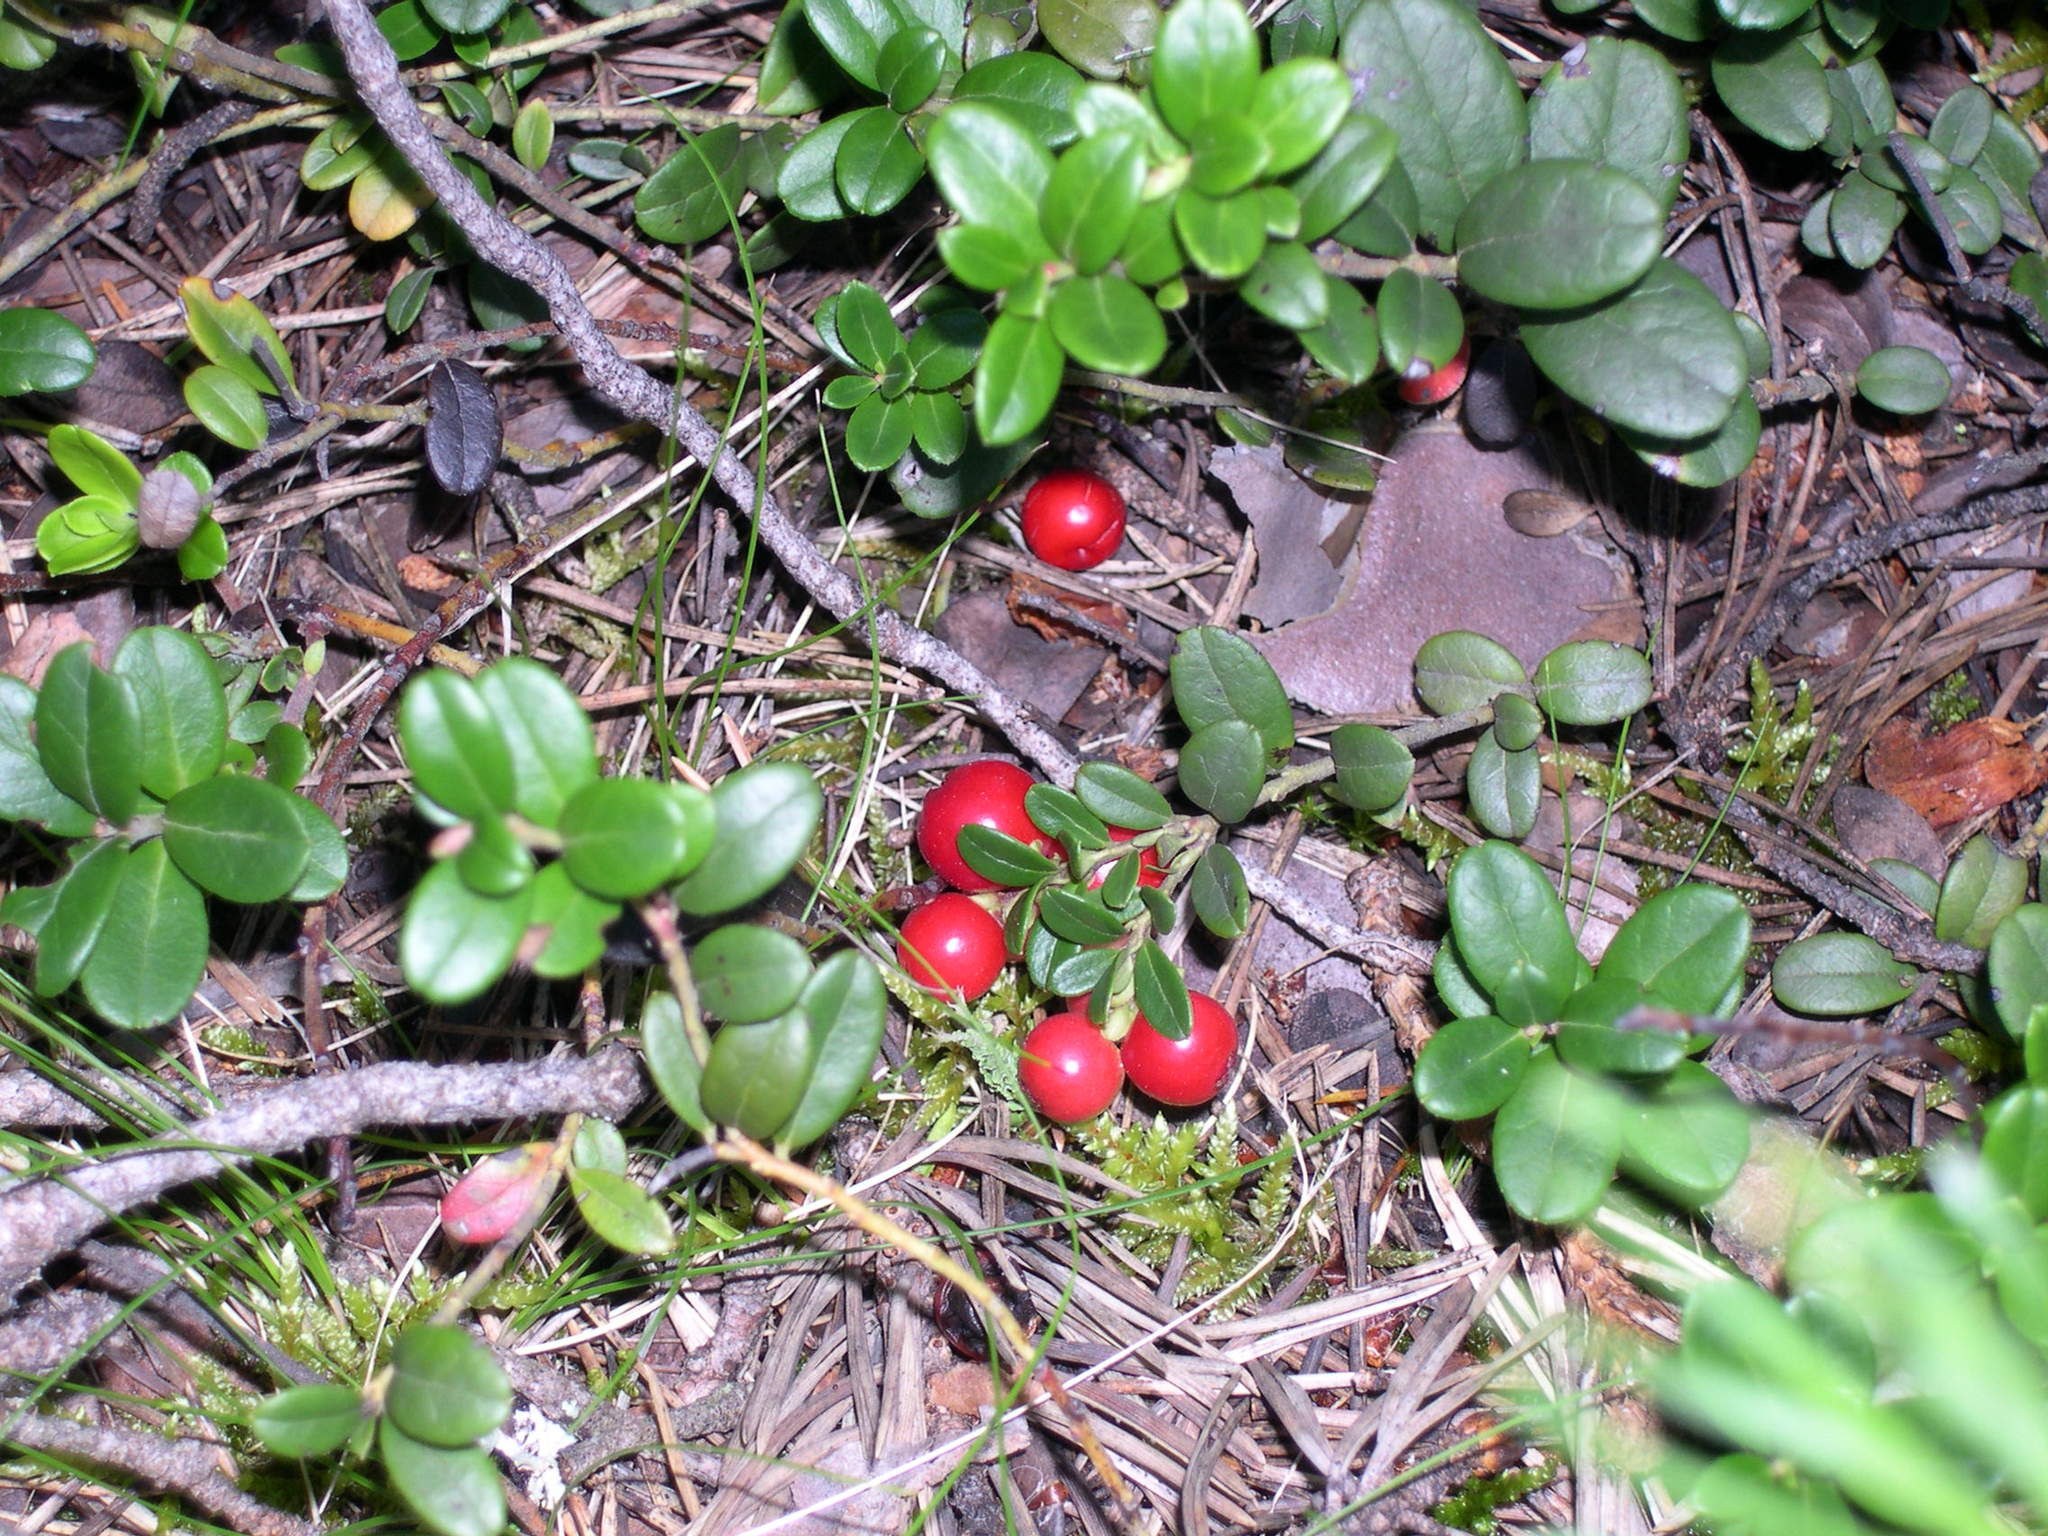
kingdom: Plantae
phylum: Tracheophyta
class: Magnoliopsida
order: Ericales
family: Ericaceae
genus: Vaccinium
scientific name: Vaccinium vitis-idaea
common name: Cowberry
